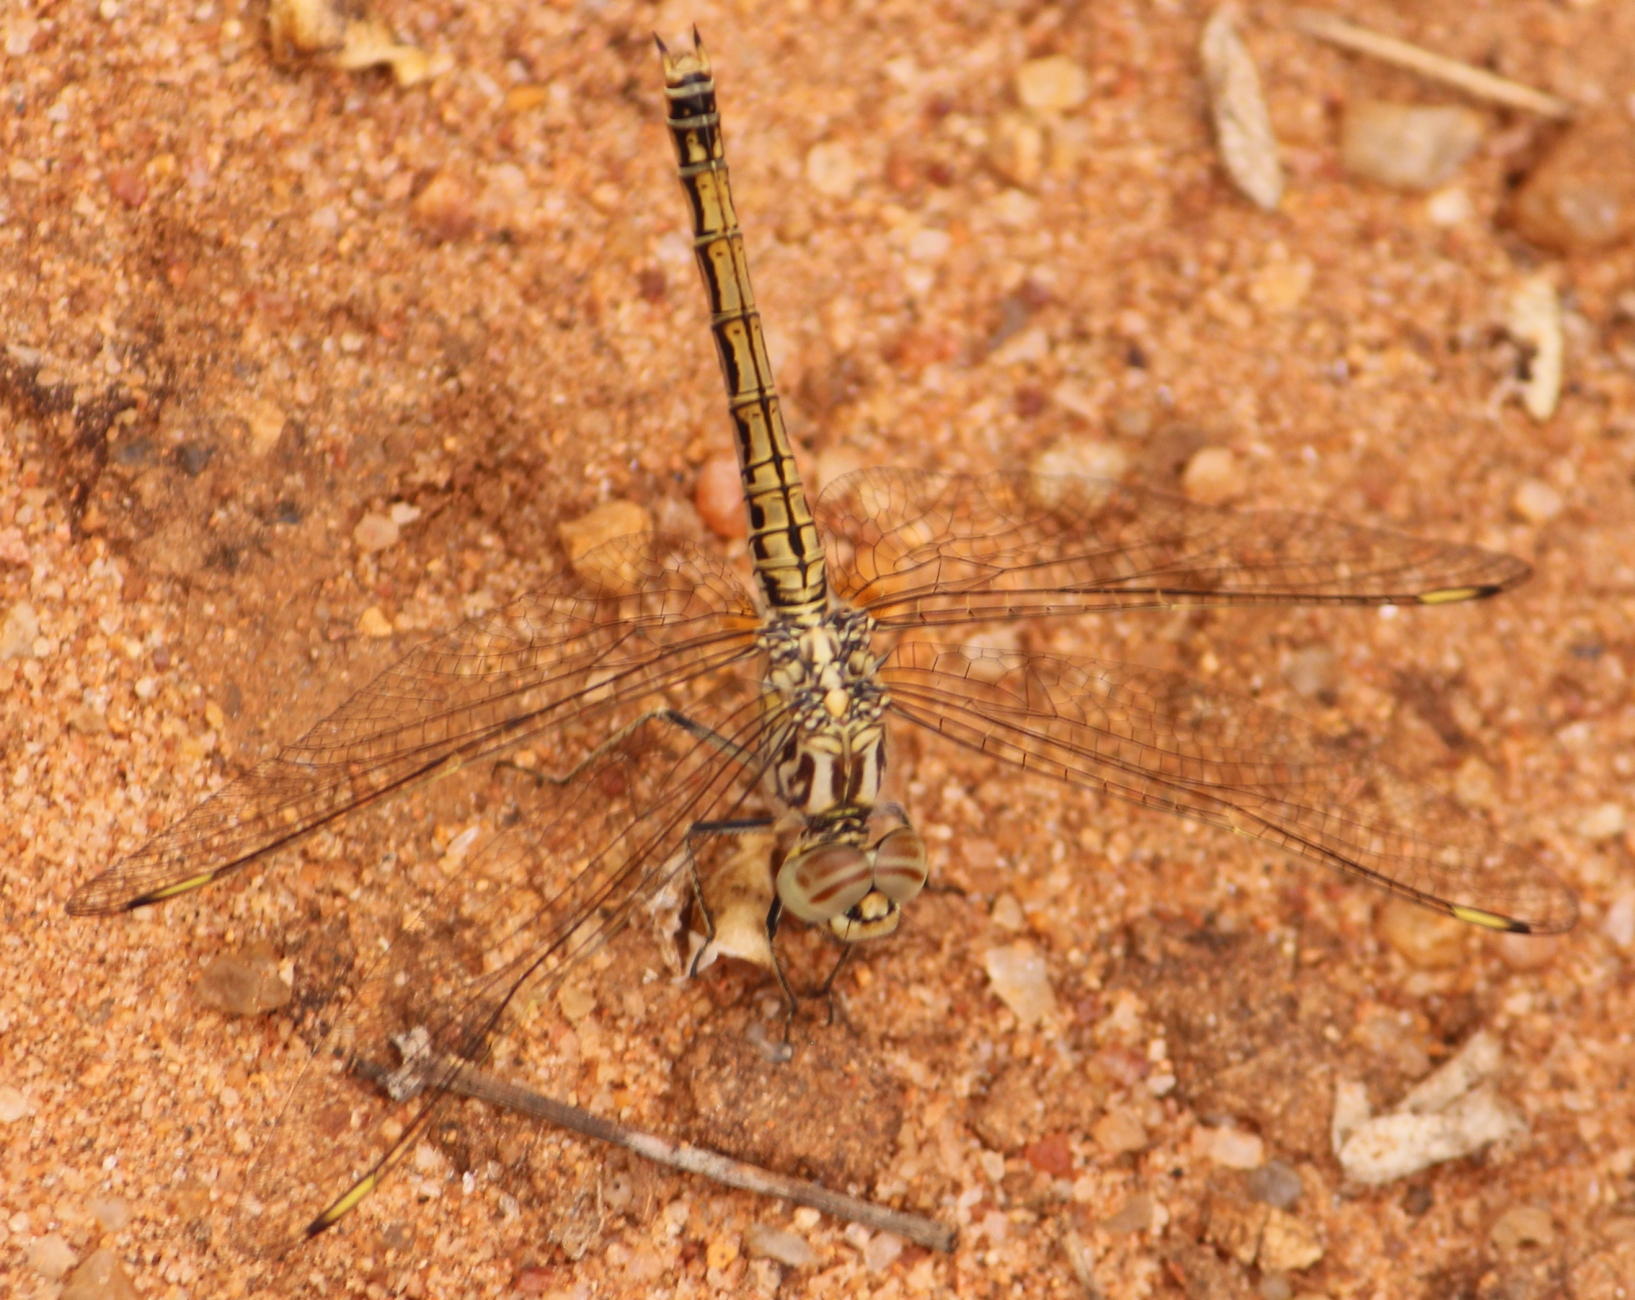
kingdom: Animalia
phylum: Arthropoda
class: Insecta
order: Odonata
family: Libellulidae
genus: Brachythemis
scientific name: Brachythemis leucosticta
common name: Banded groundling
